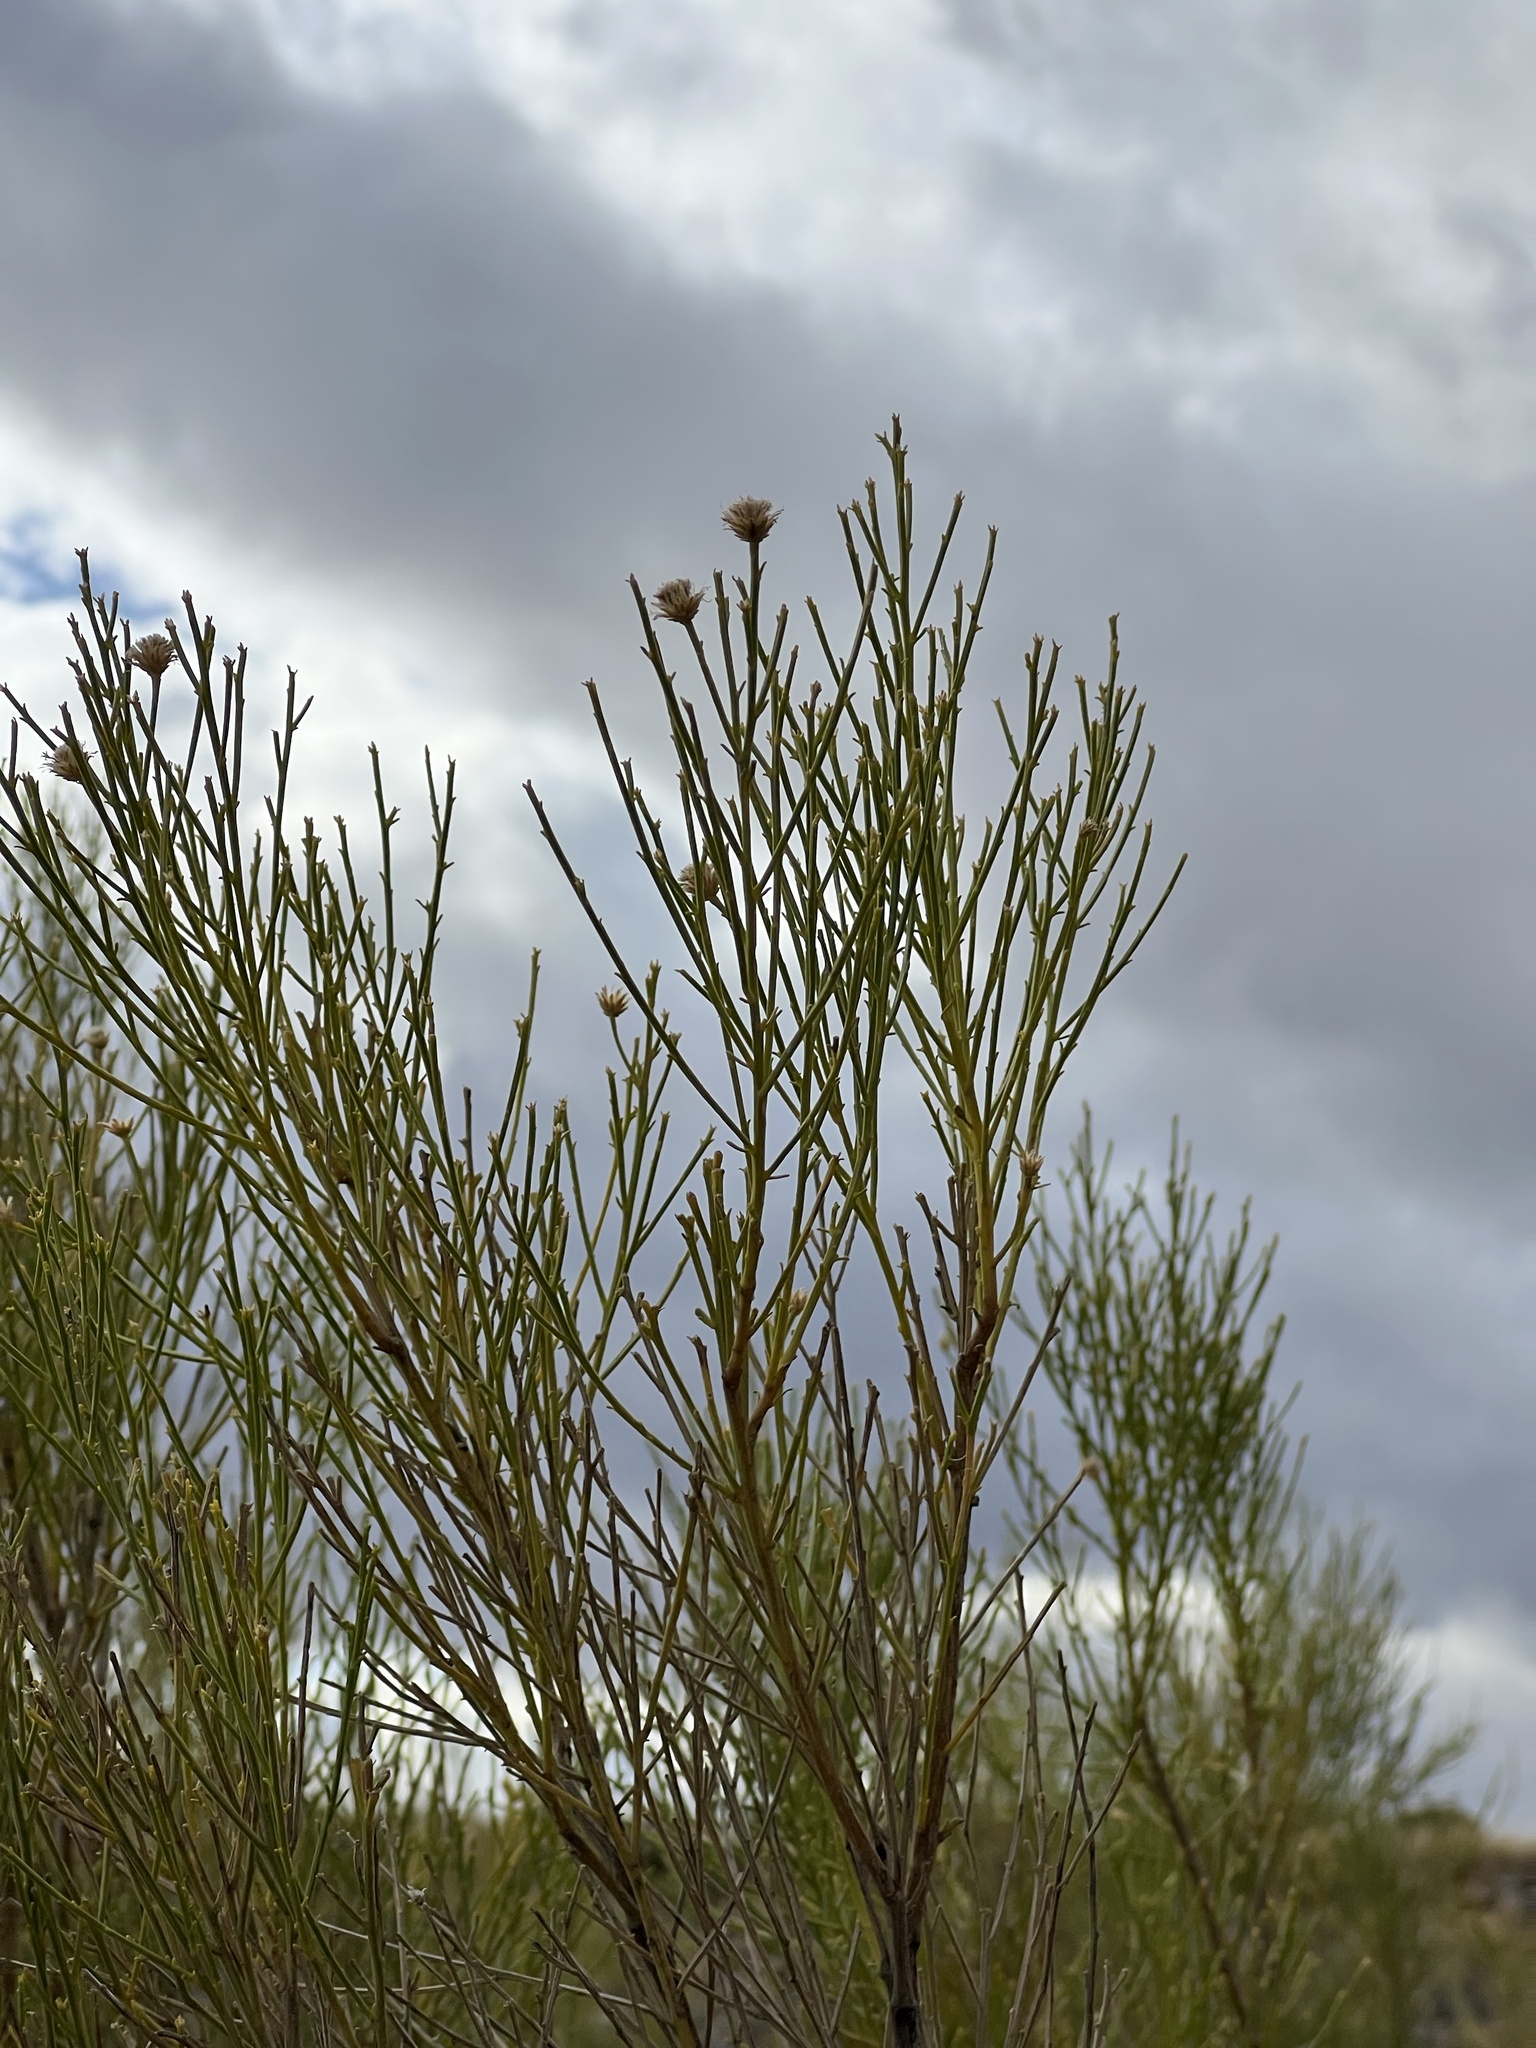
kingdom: Plantae
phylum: Tracheophyta
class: Magnoliopsida
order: Asterales
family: Asteraceae
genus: Baccharis
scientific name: Baccharis sarothroides
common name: Desert-broom
